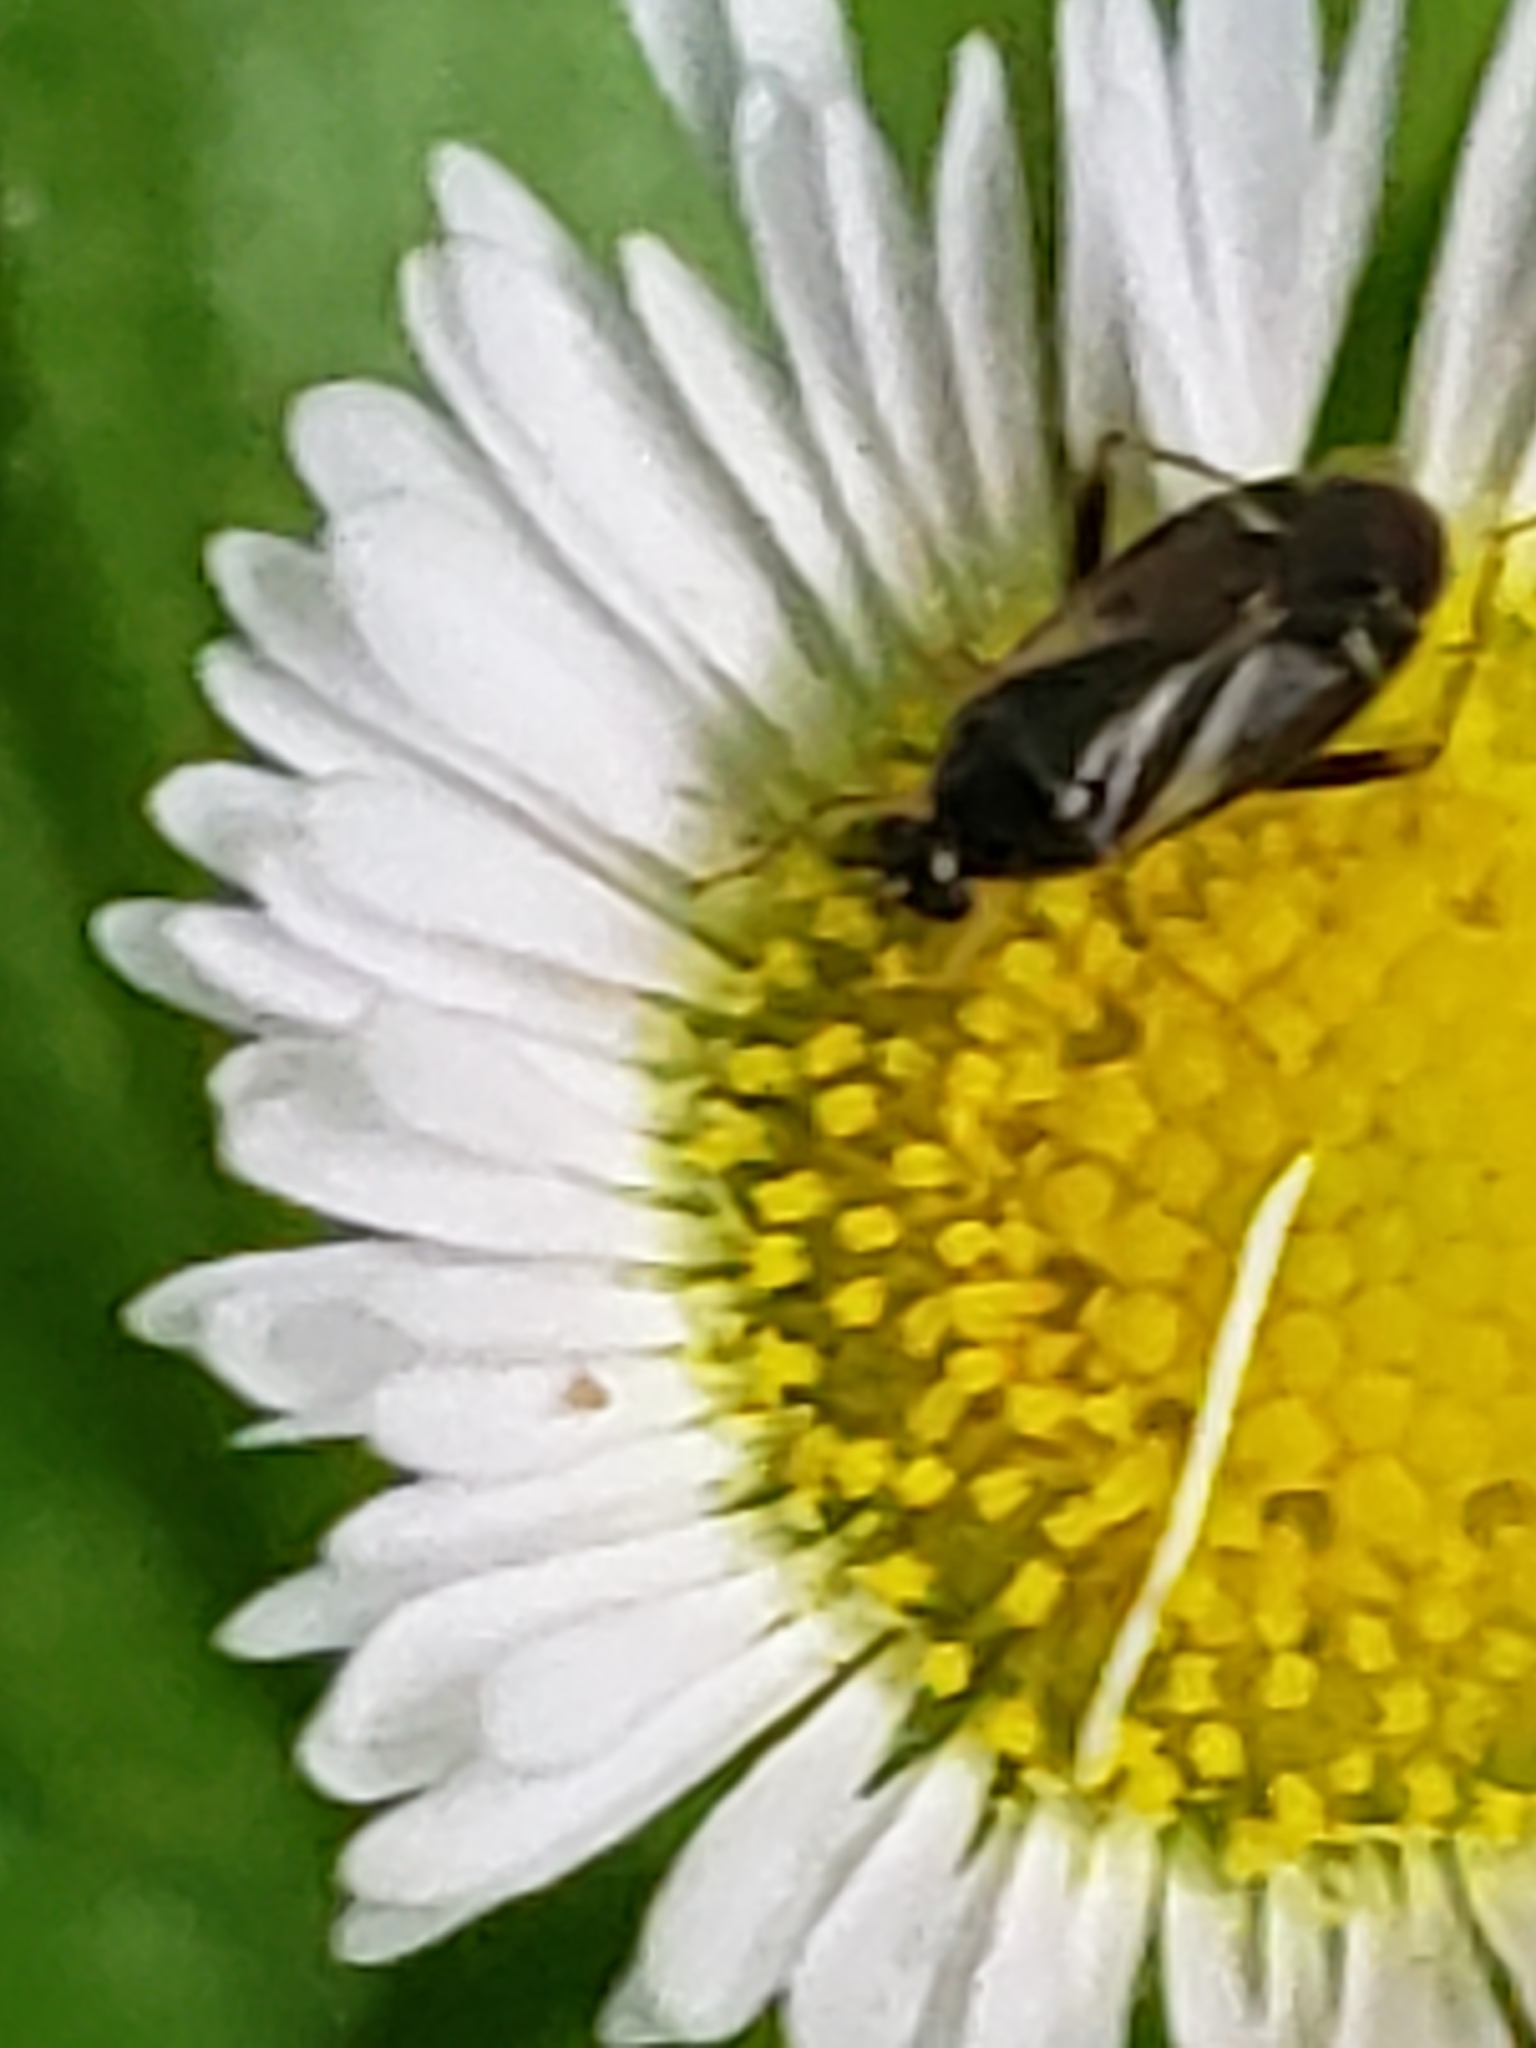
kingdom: Animalia
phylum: Arthropoda
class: Insecta
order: Hemiptera
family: Miridae
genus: Plagiognathus
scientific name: Plagiognathus obscurus
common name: Obscure plant bug
